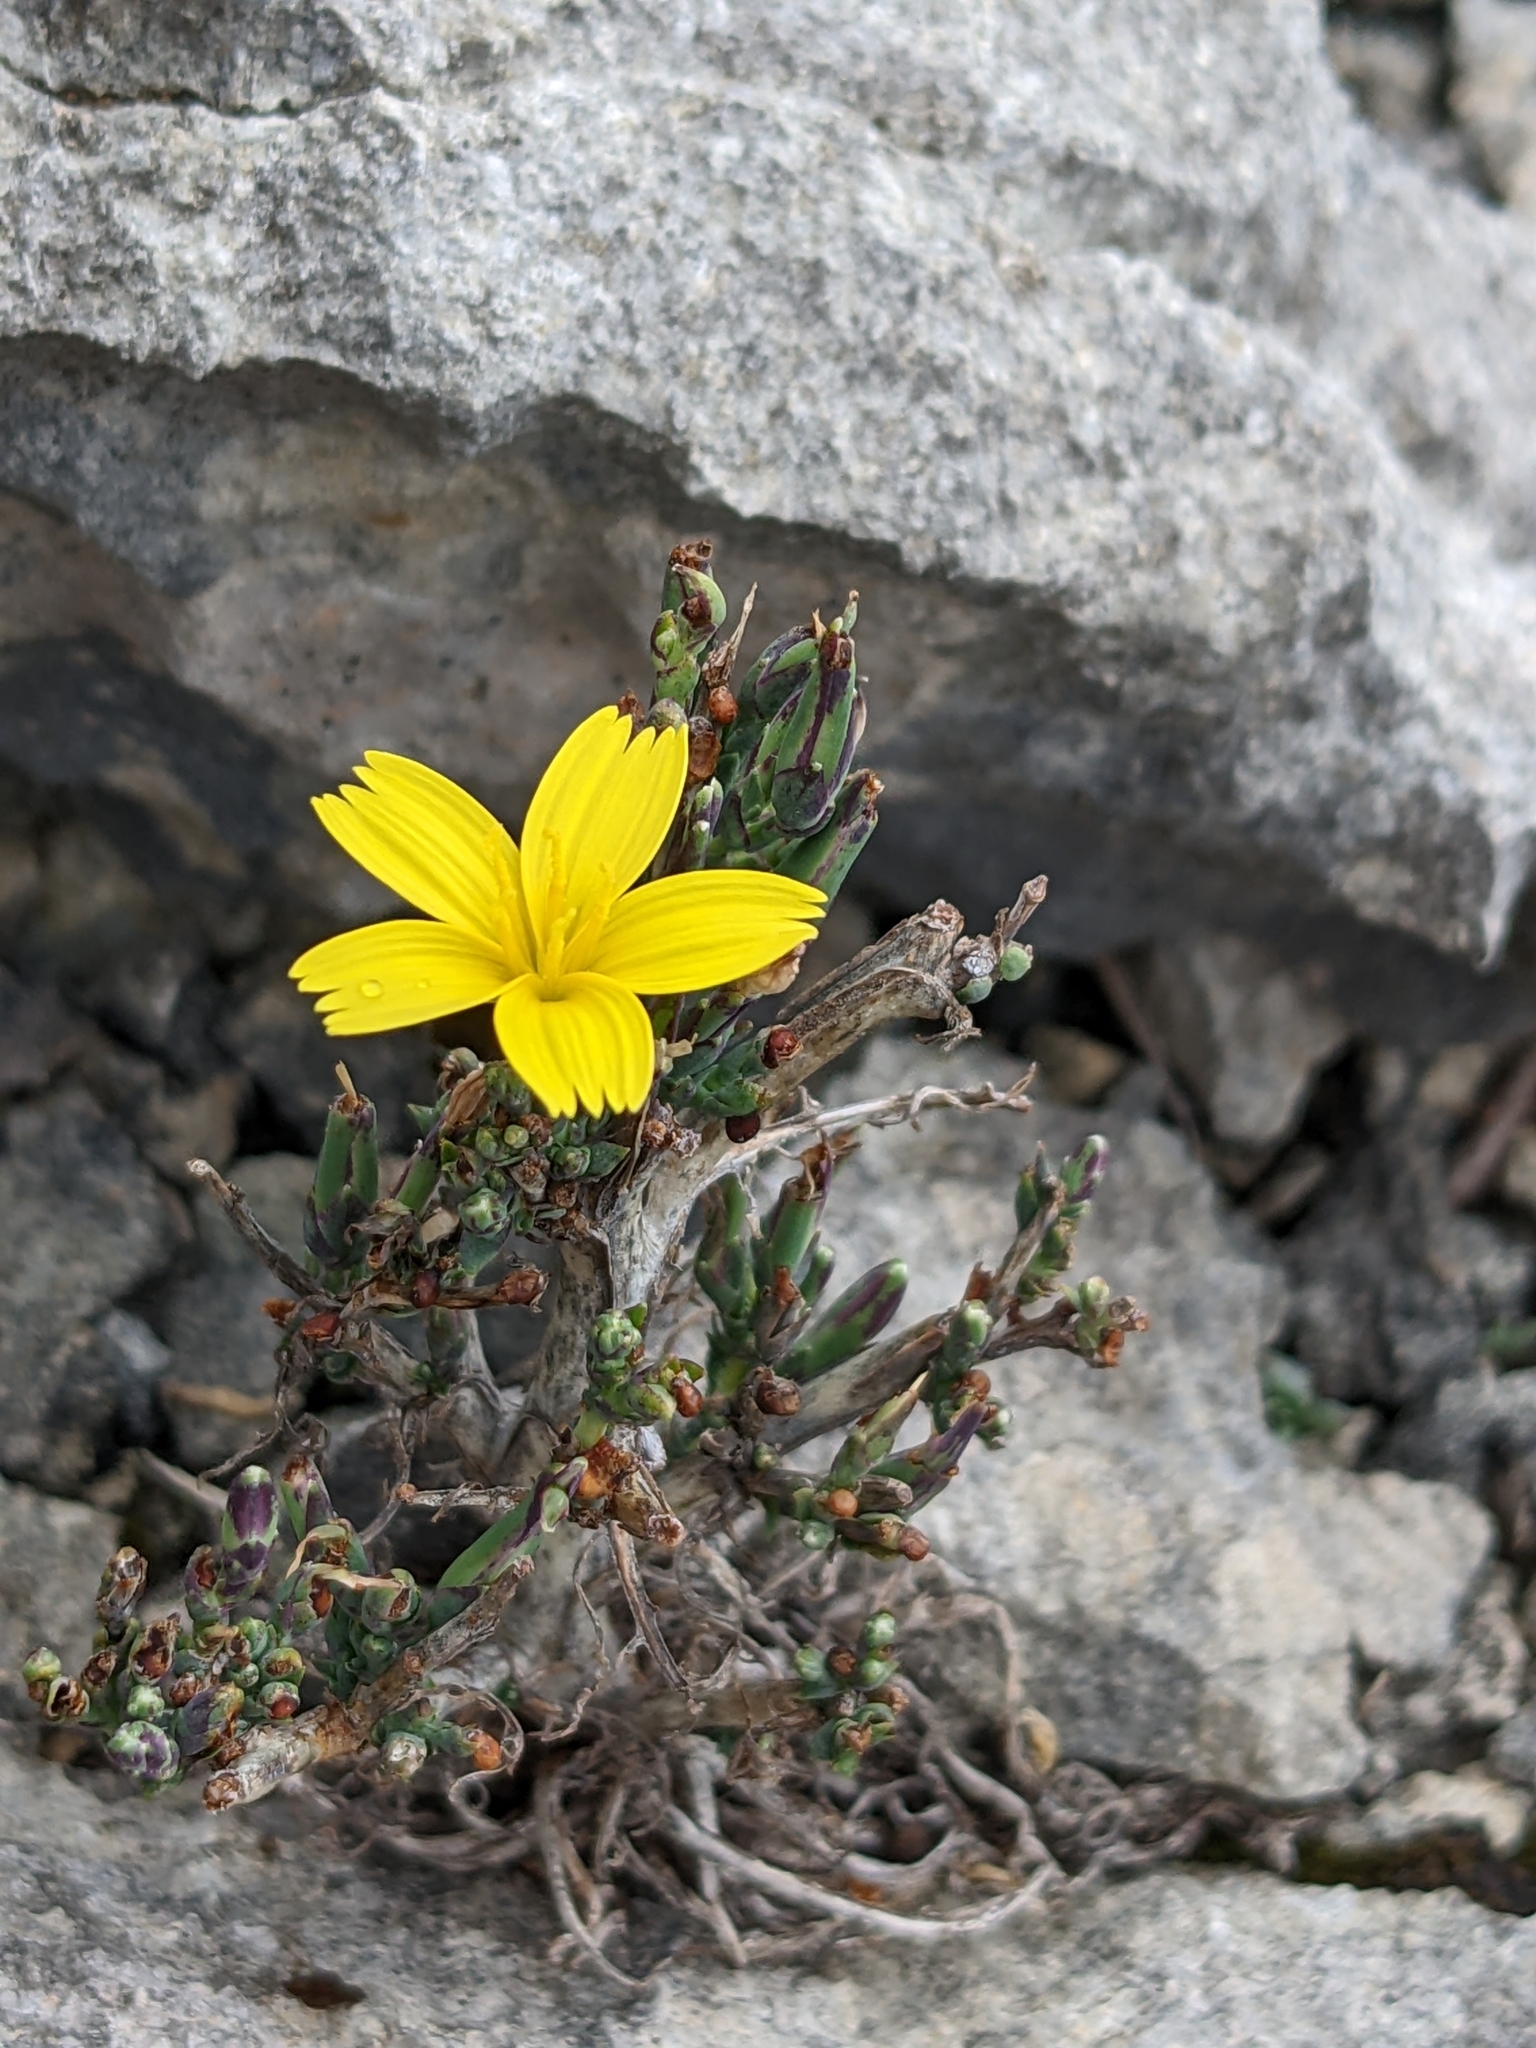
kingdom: Plantae
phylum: Tracheophyta
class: Magnoliopsida
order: Asterales
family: Asteraceae
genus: Lactuca
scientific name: Lactuca viminea
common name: Pliant lettuce
